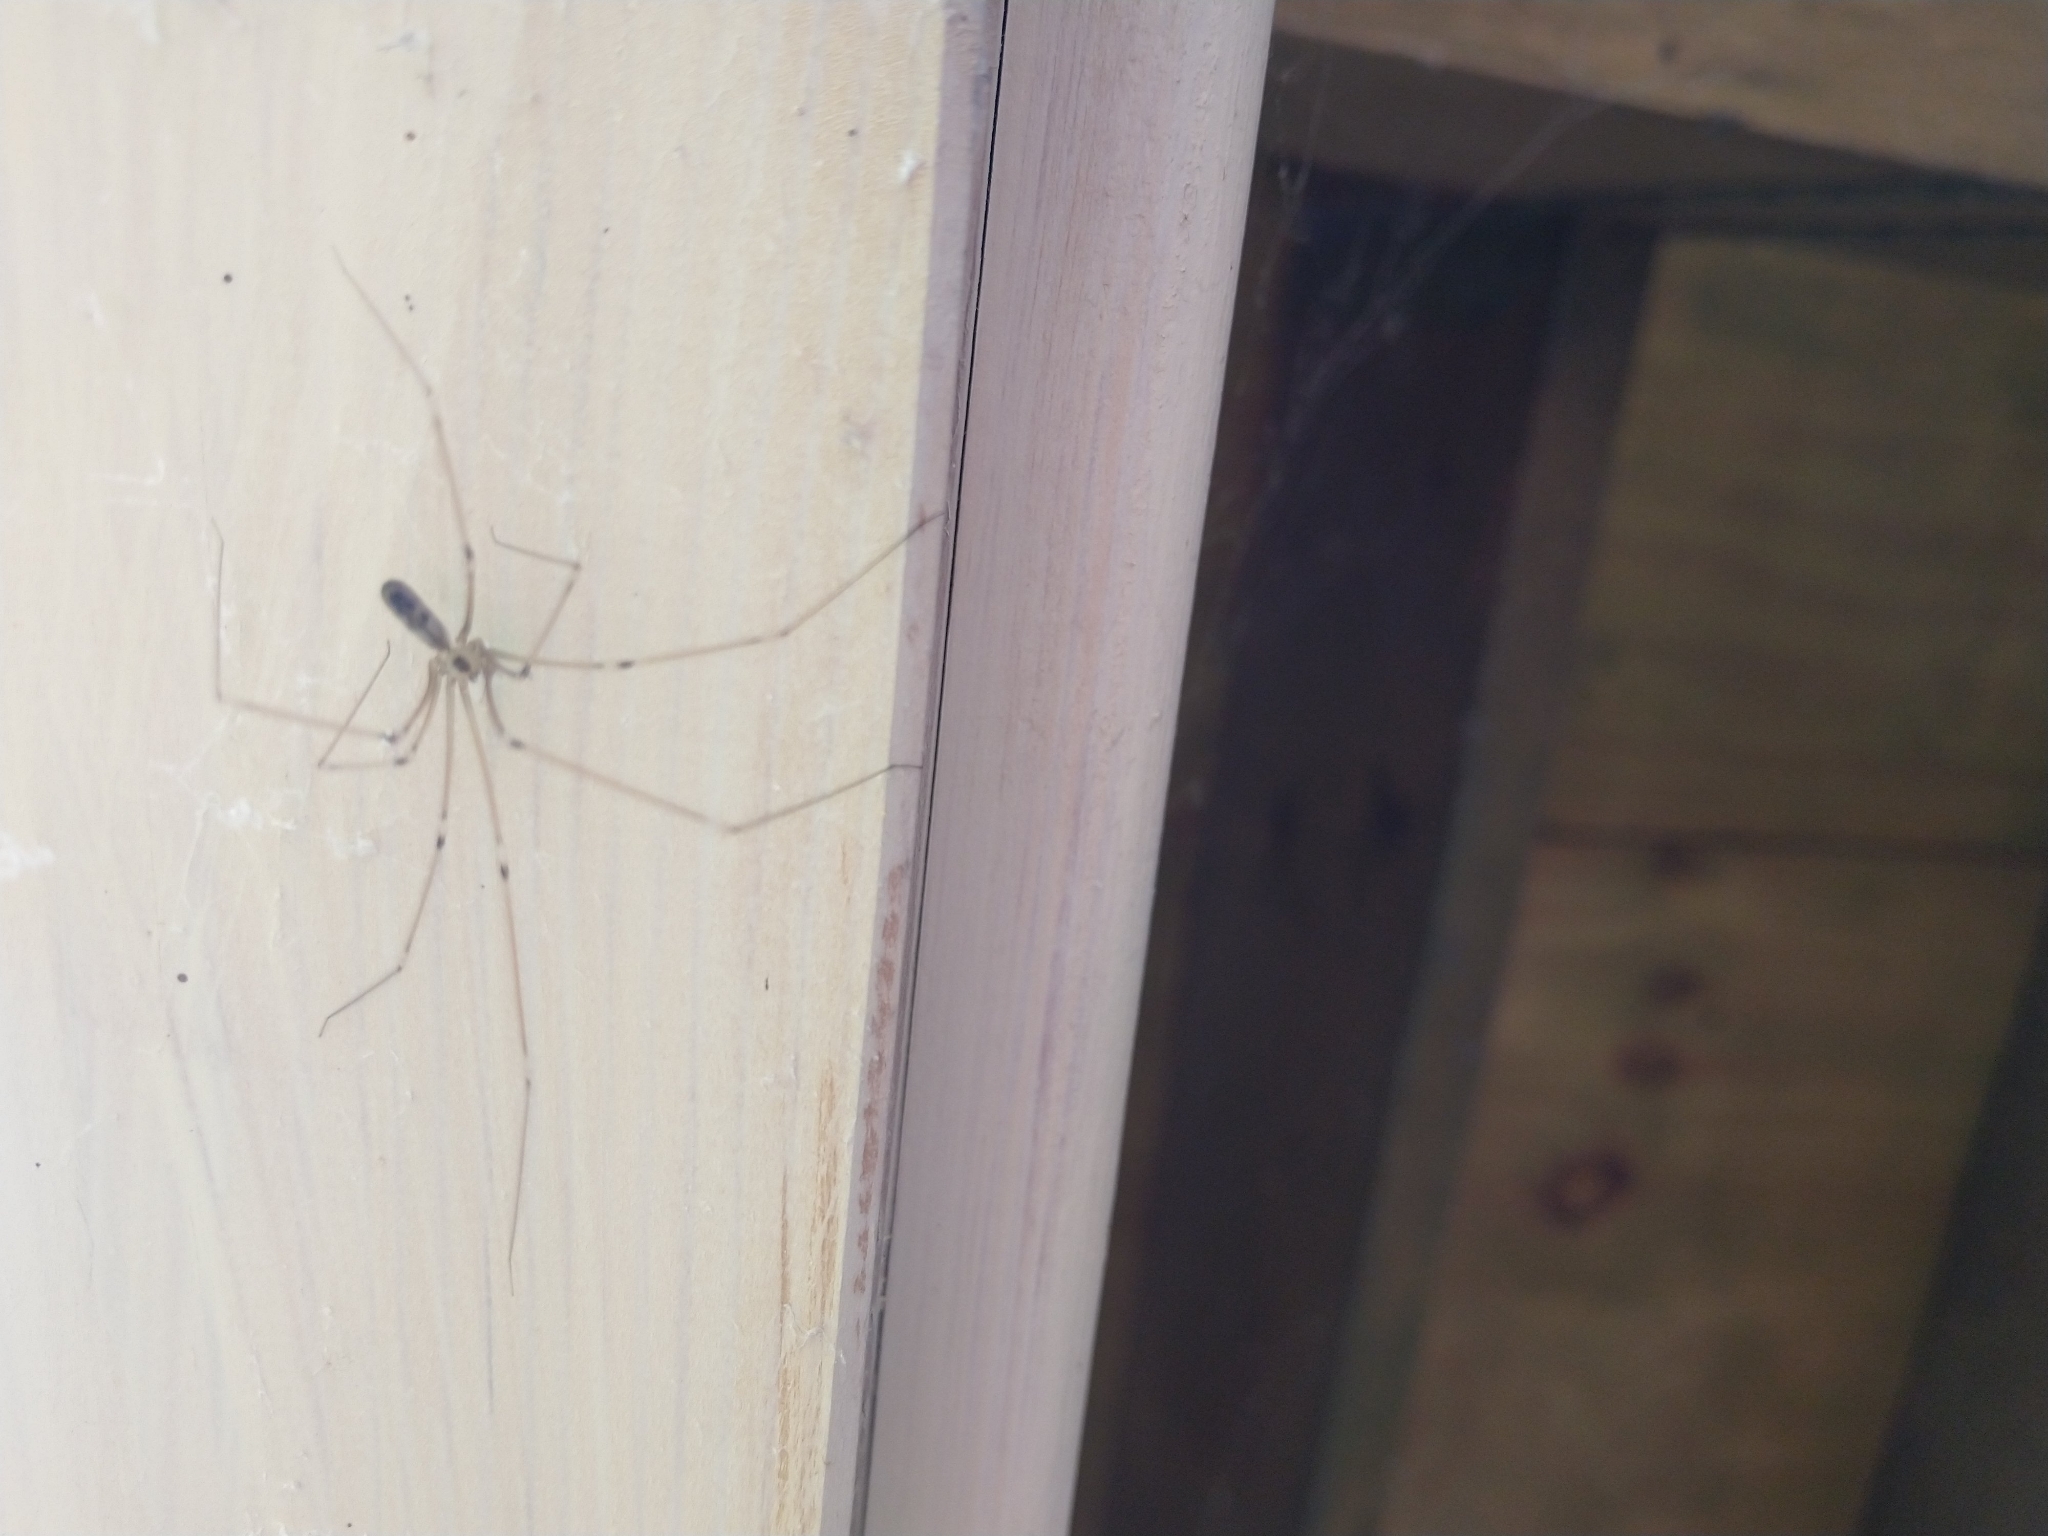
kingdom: Animalia
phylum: Arthropoda
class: Arachnida
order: Araneae
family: Pholcidae
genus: Pholcus
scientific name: Pholcus phalangioides
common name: Longbodied cellar spider
